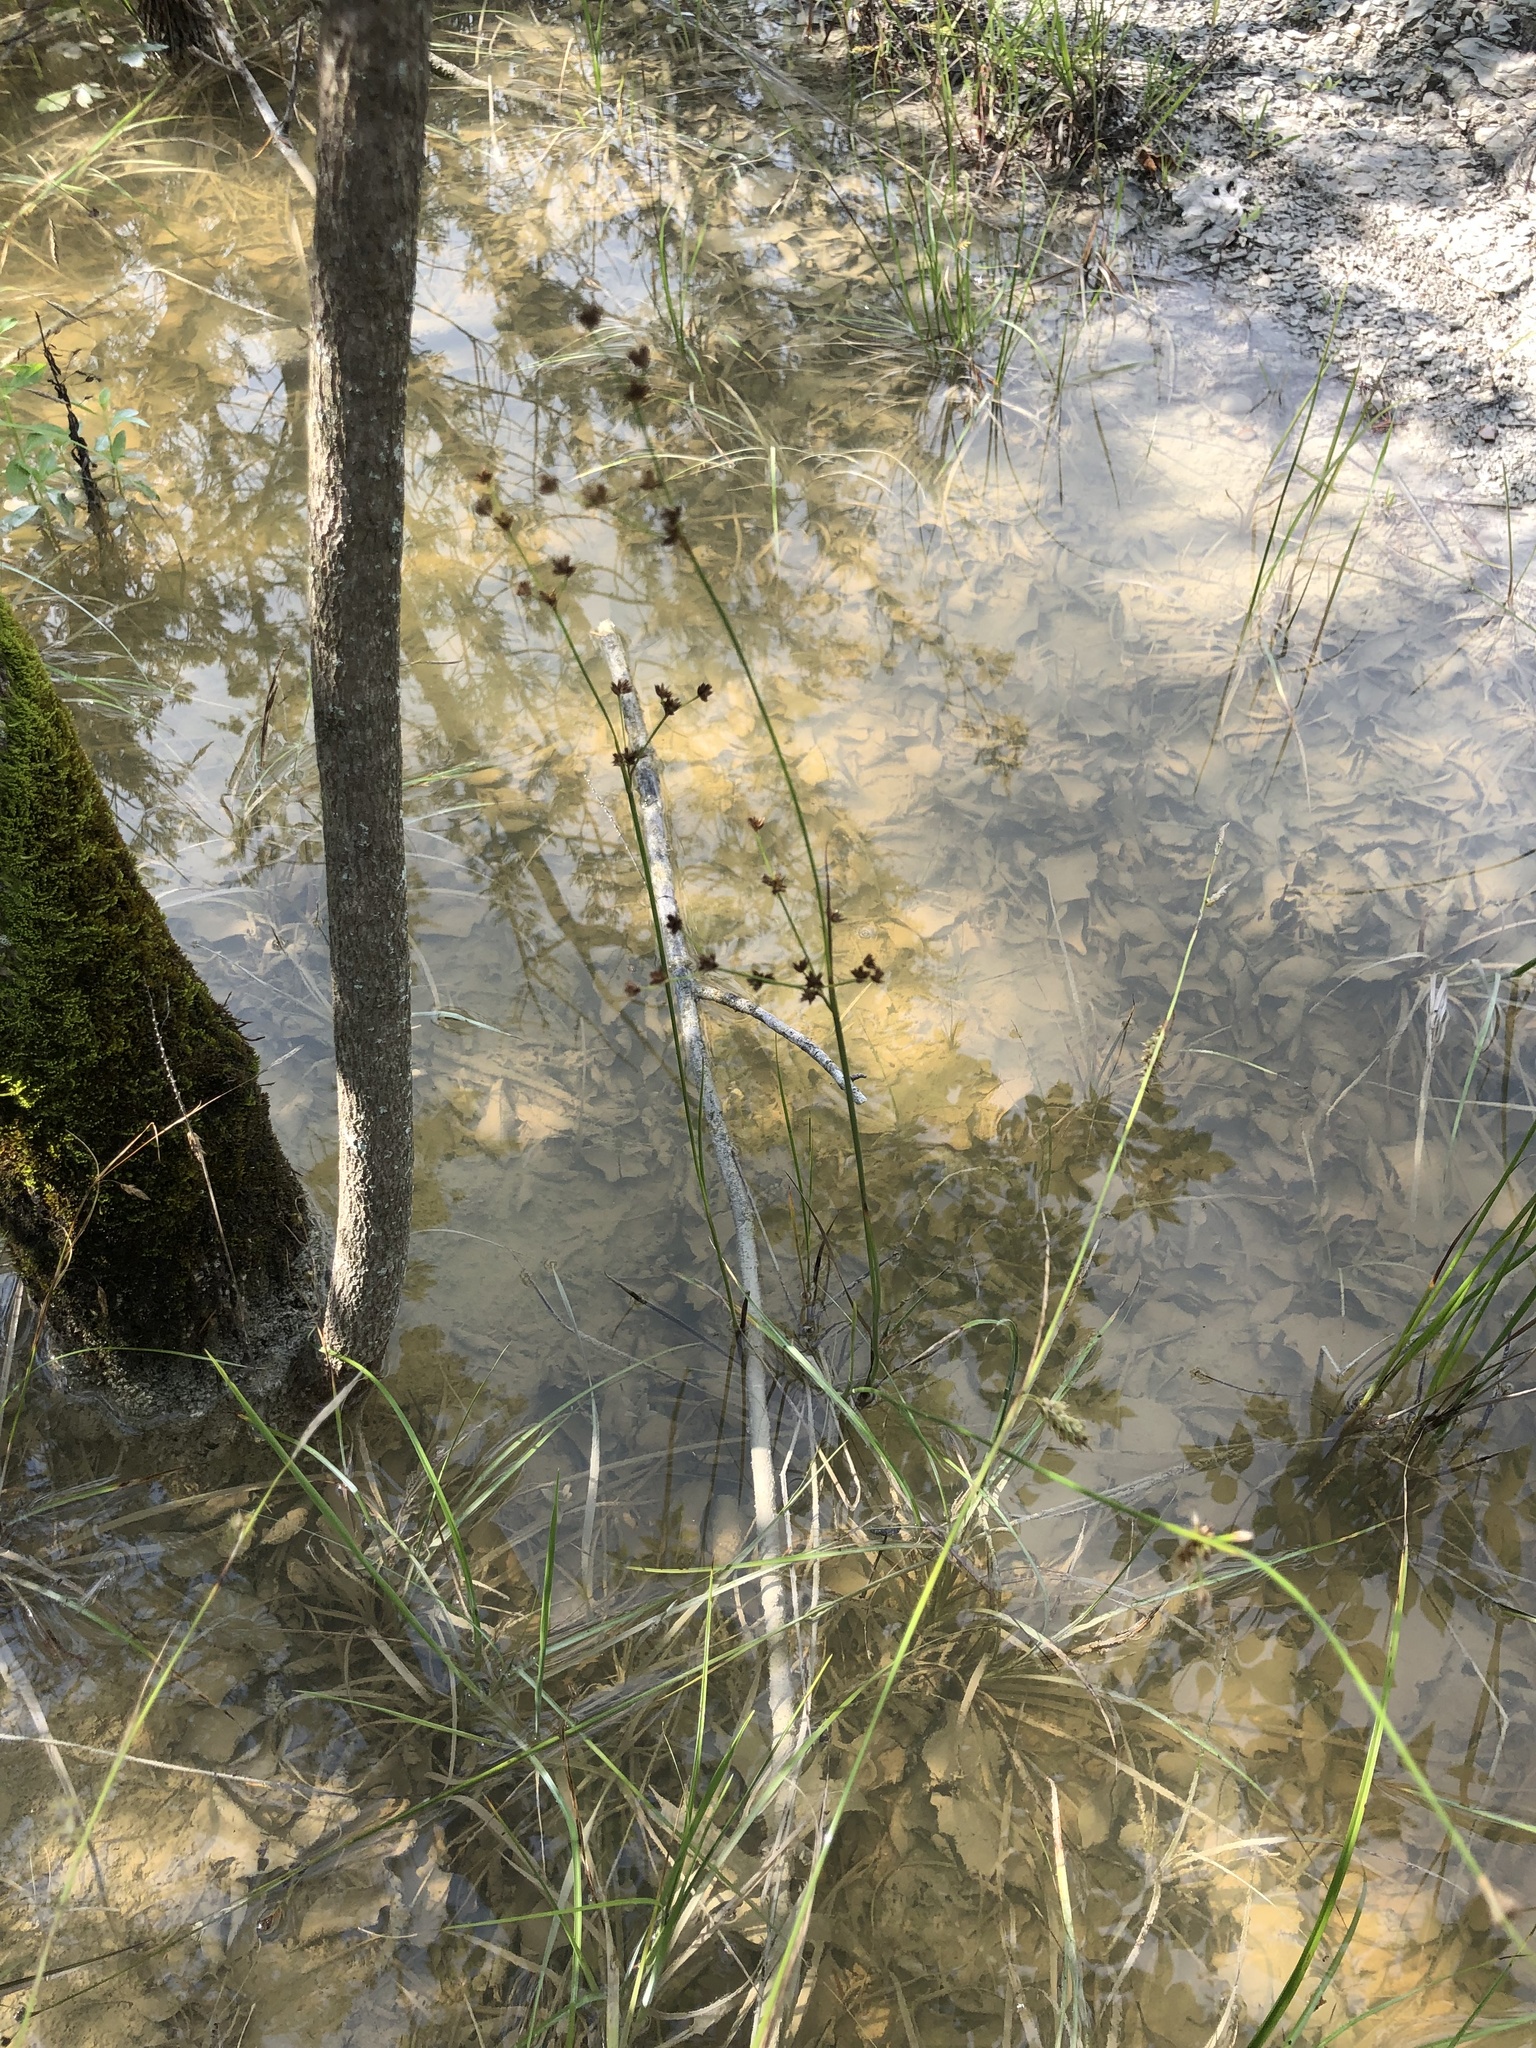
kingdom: Plantae
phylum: Tracheophyta
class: Liliopsida
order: Poales
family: Juncaceae
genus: Juncus
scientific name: Juncus acuminatus
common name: Knotty-leaved rush
